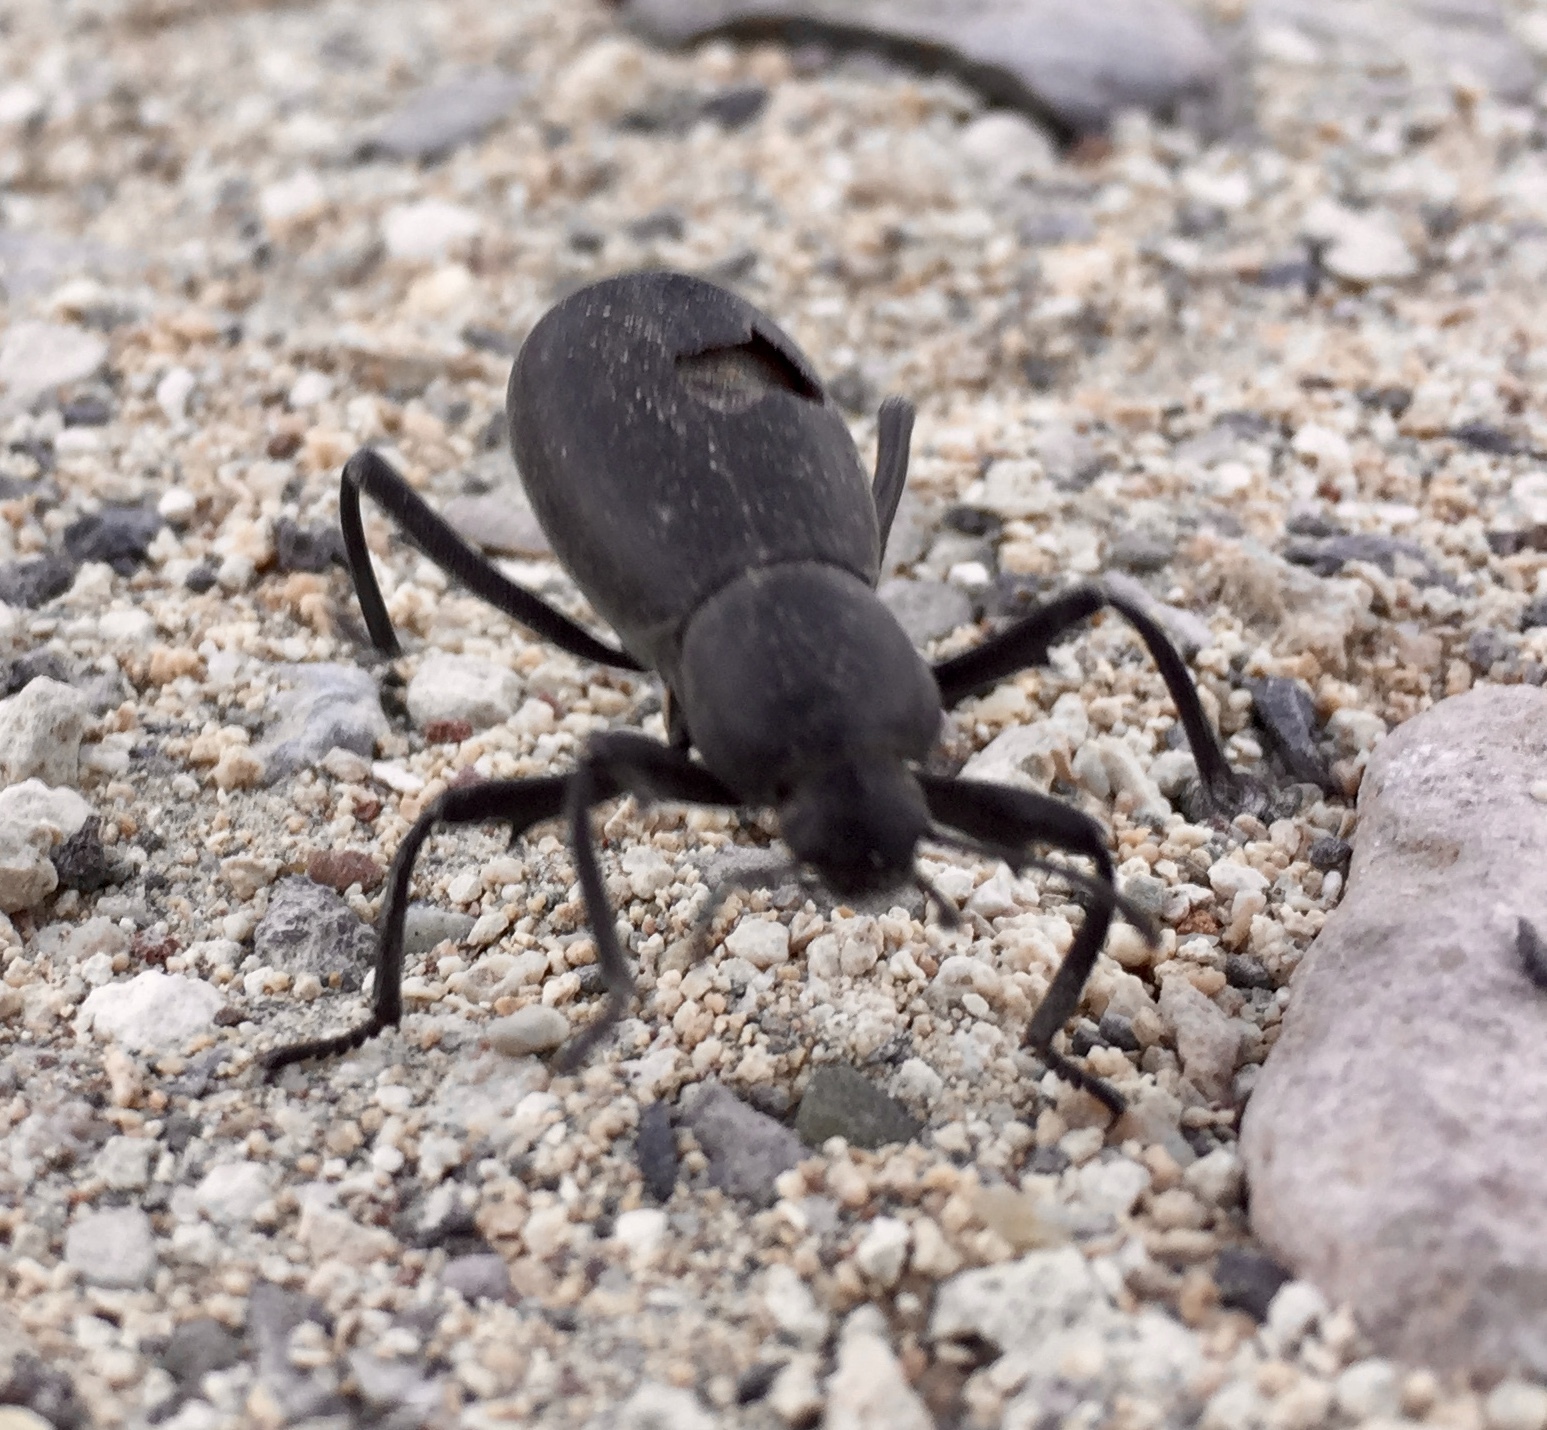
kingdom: Animalia
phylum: Arthropoda
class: Insecta
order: Coleoptera
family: Tenebrionidae
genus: Eleodes
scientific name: Eleodes armata
